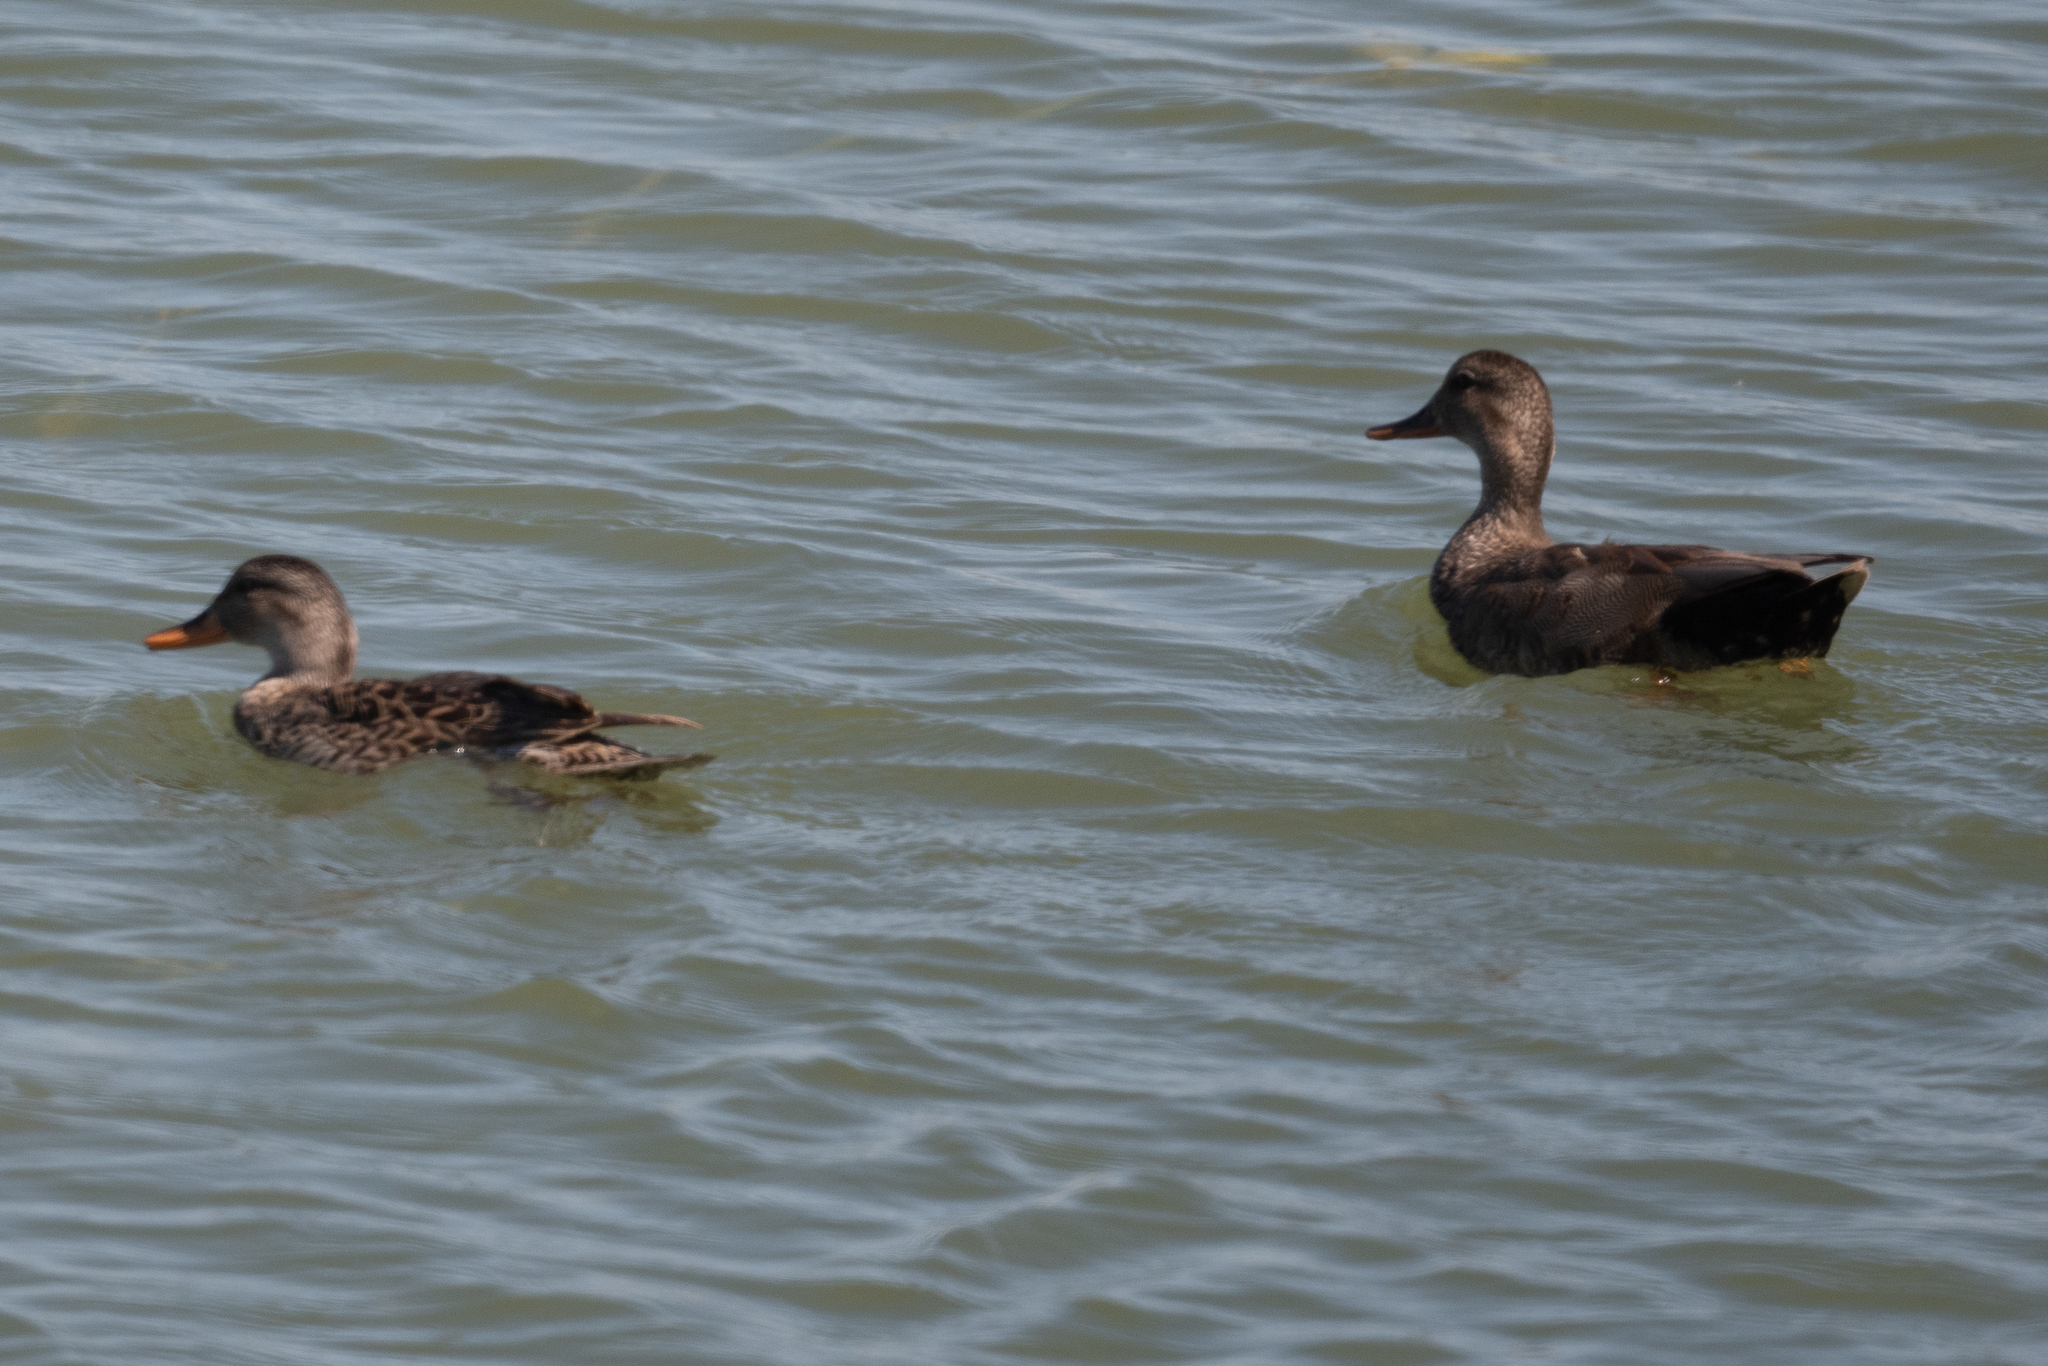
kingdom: Animalia
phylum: Chordata
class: Aves
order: Anseriformes
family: Anatidae
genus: Mareca
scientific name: Mareca strepera
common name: Gadwall
